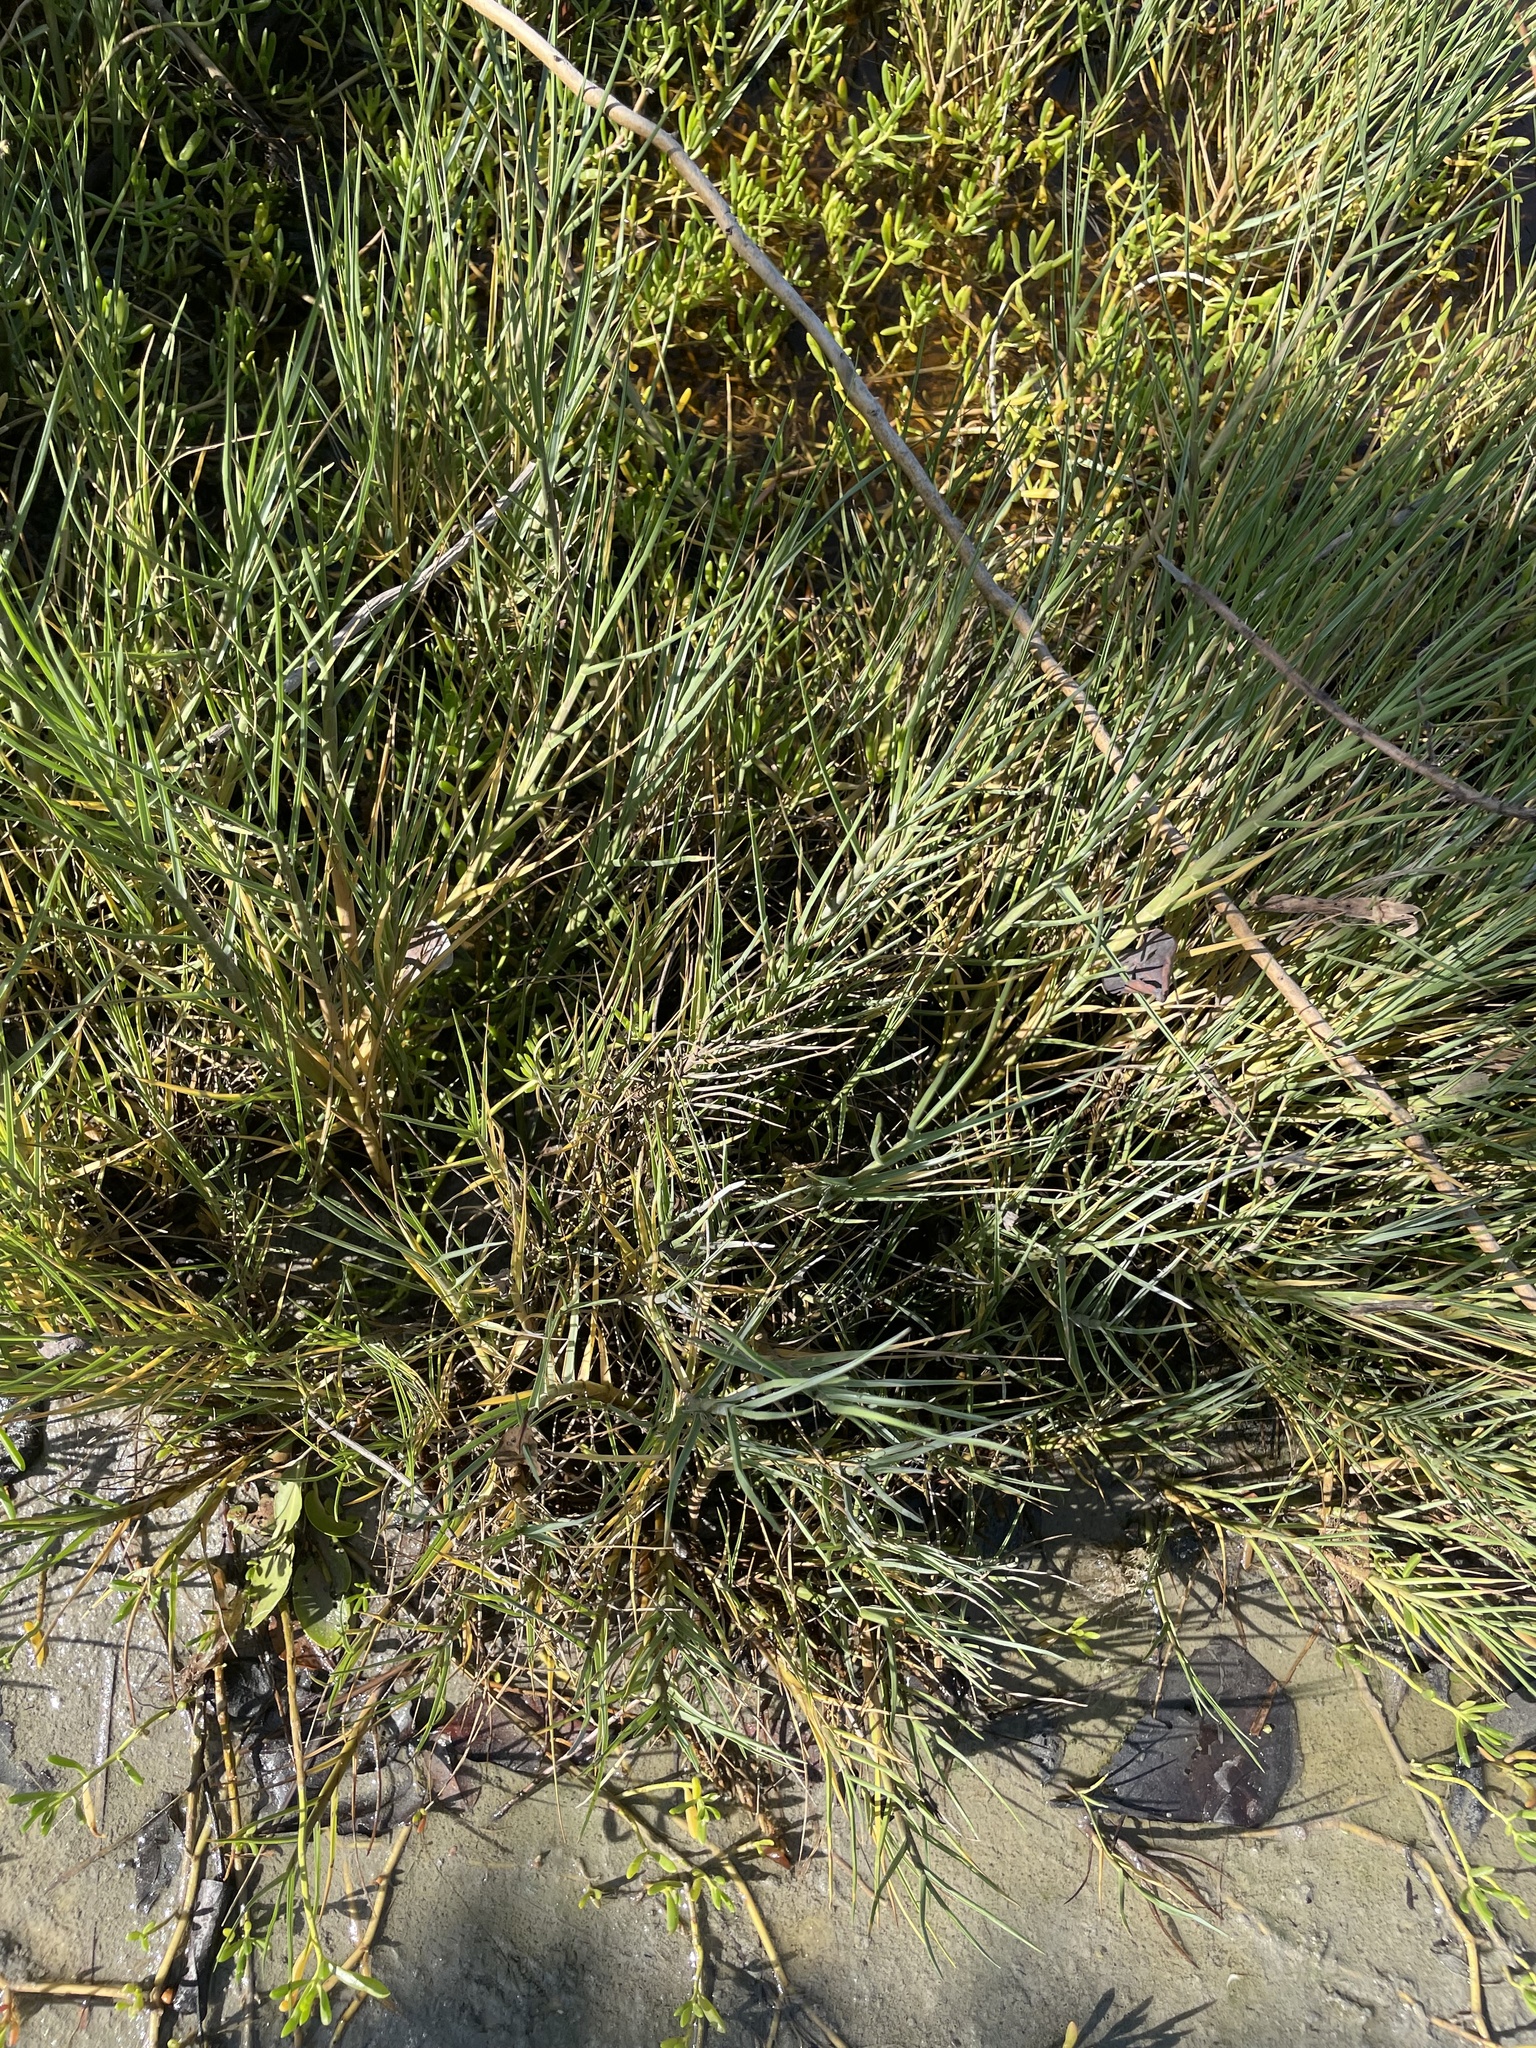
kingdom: Plantae
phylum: Tracheophyta
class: Liliopsida
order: Poales
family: Poaceae
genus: Sporobolus
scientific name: Sporobolus virginicus
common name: Beach dropseed
